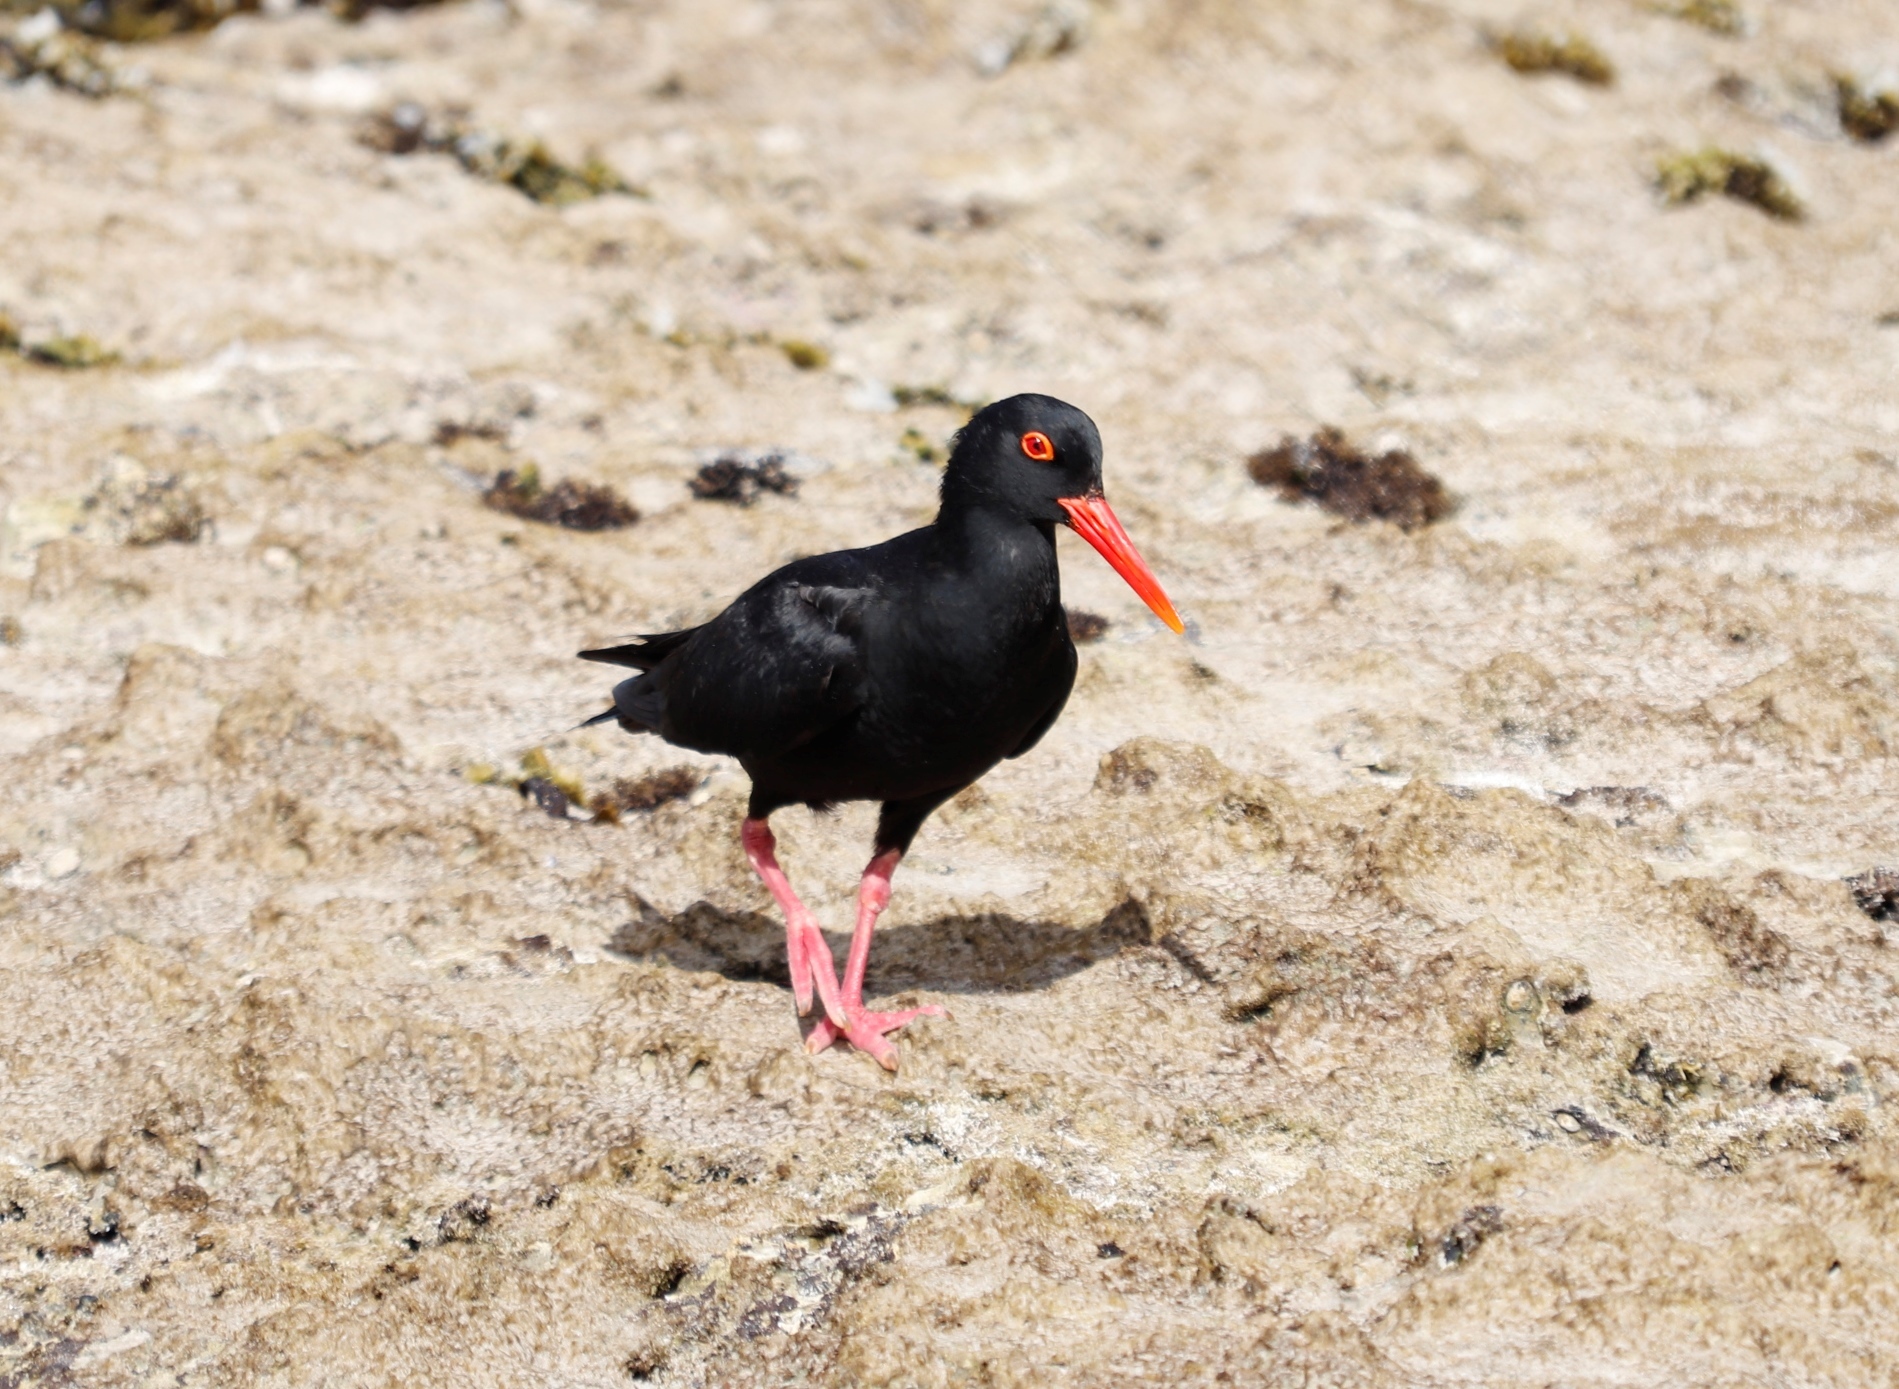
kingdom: Animalia
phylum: Chordata
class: Aves
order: Charadriiformes
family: Haematopodidae
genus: Haematopus
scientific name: Haematopus moquini
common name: African oystercatcher
